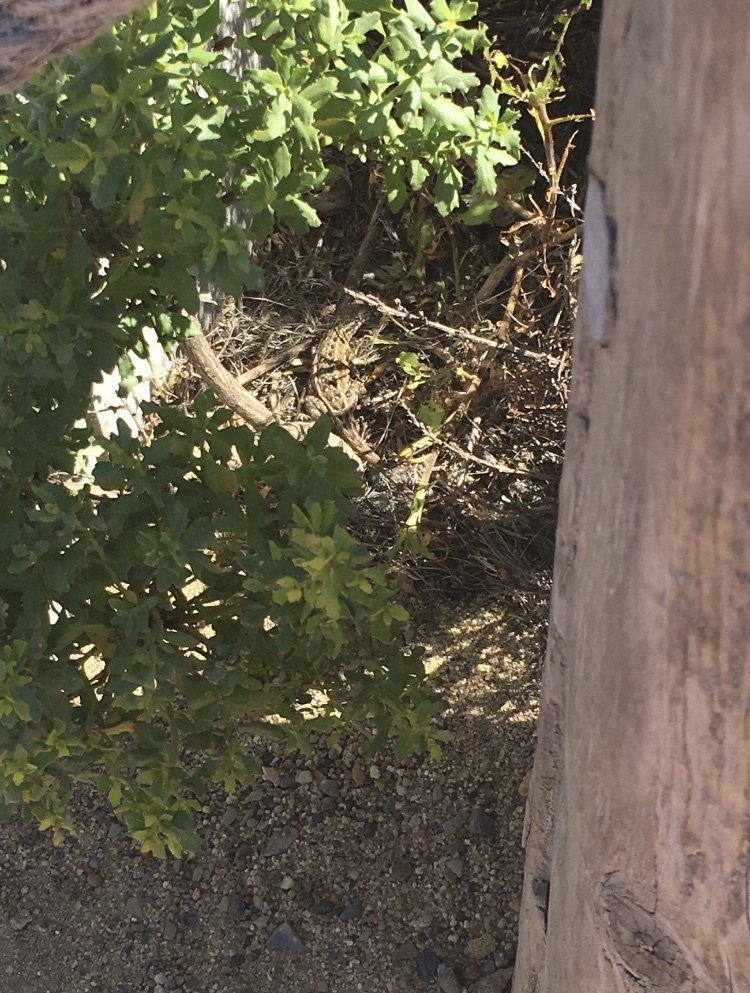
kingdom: Animalia
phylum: Chordata
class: Squamata
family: Phrynosomatidae
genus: Uta
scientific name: Uta stansburiana
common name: Side-blotched lizard
